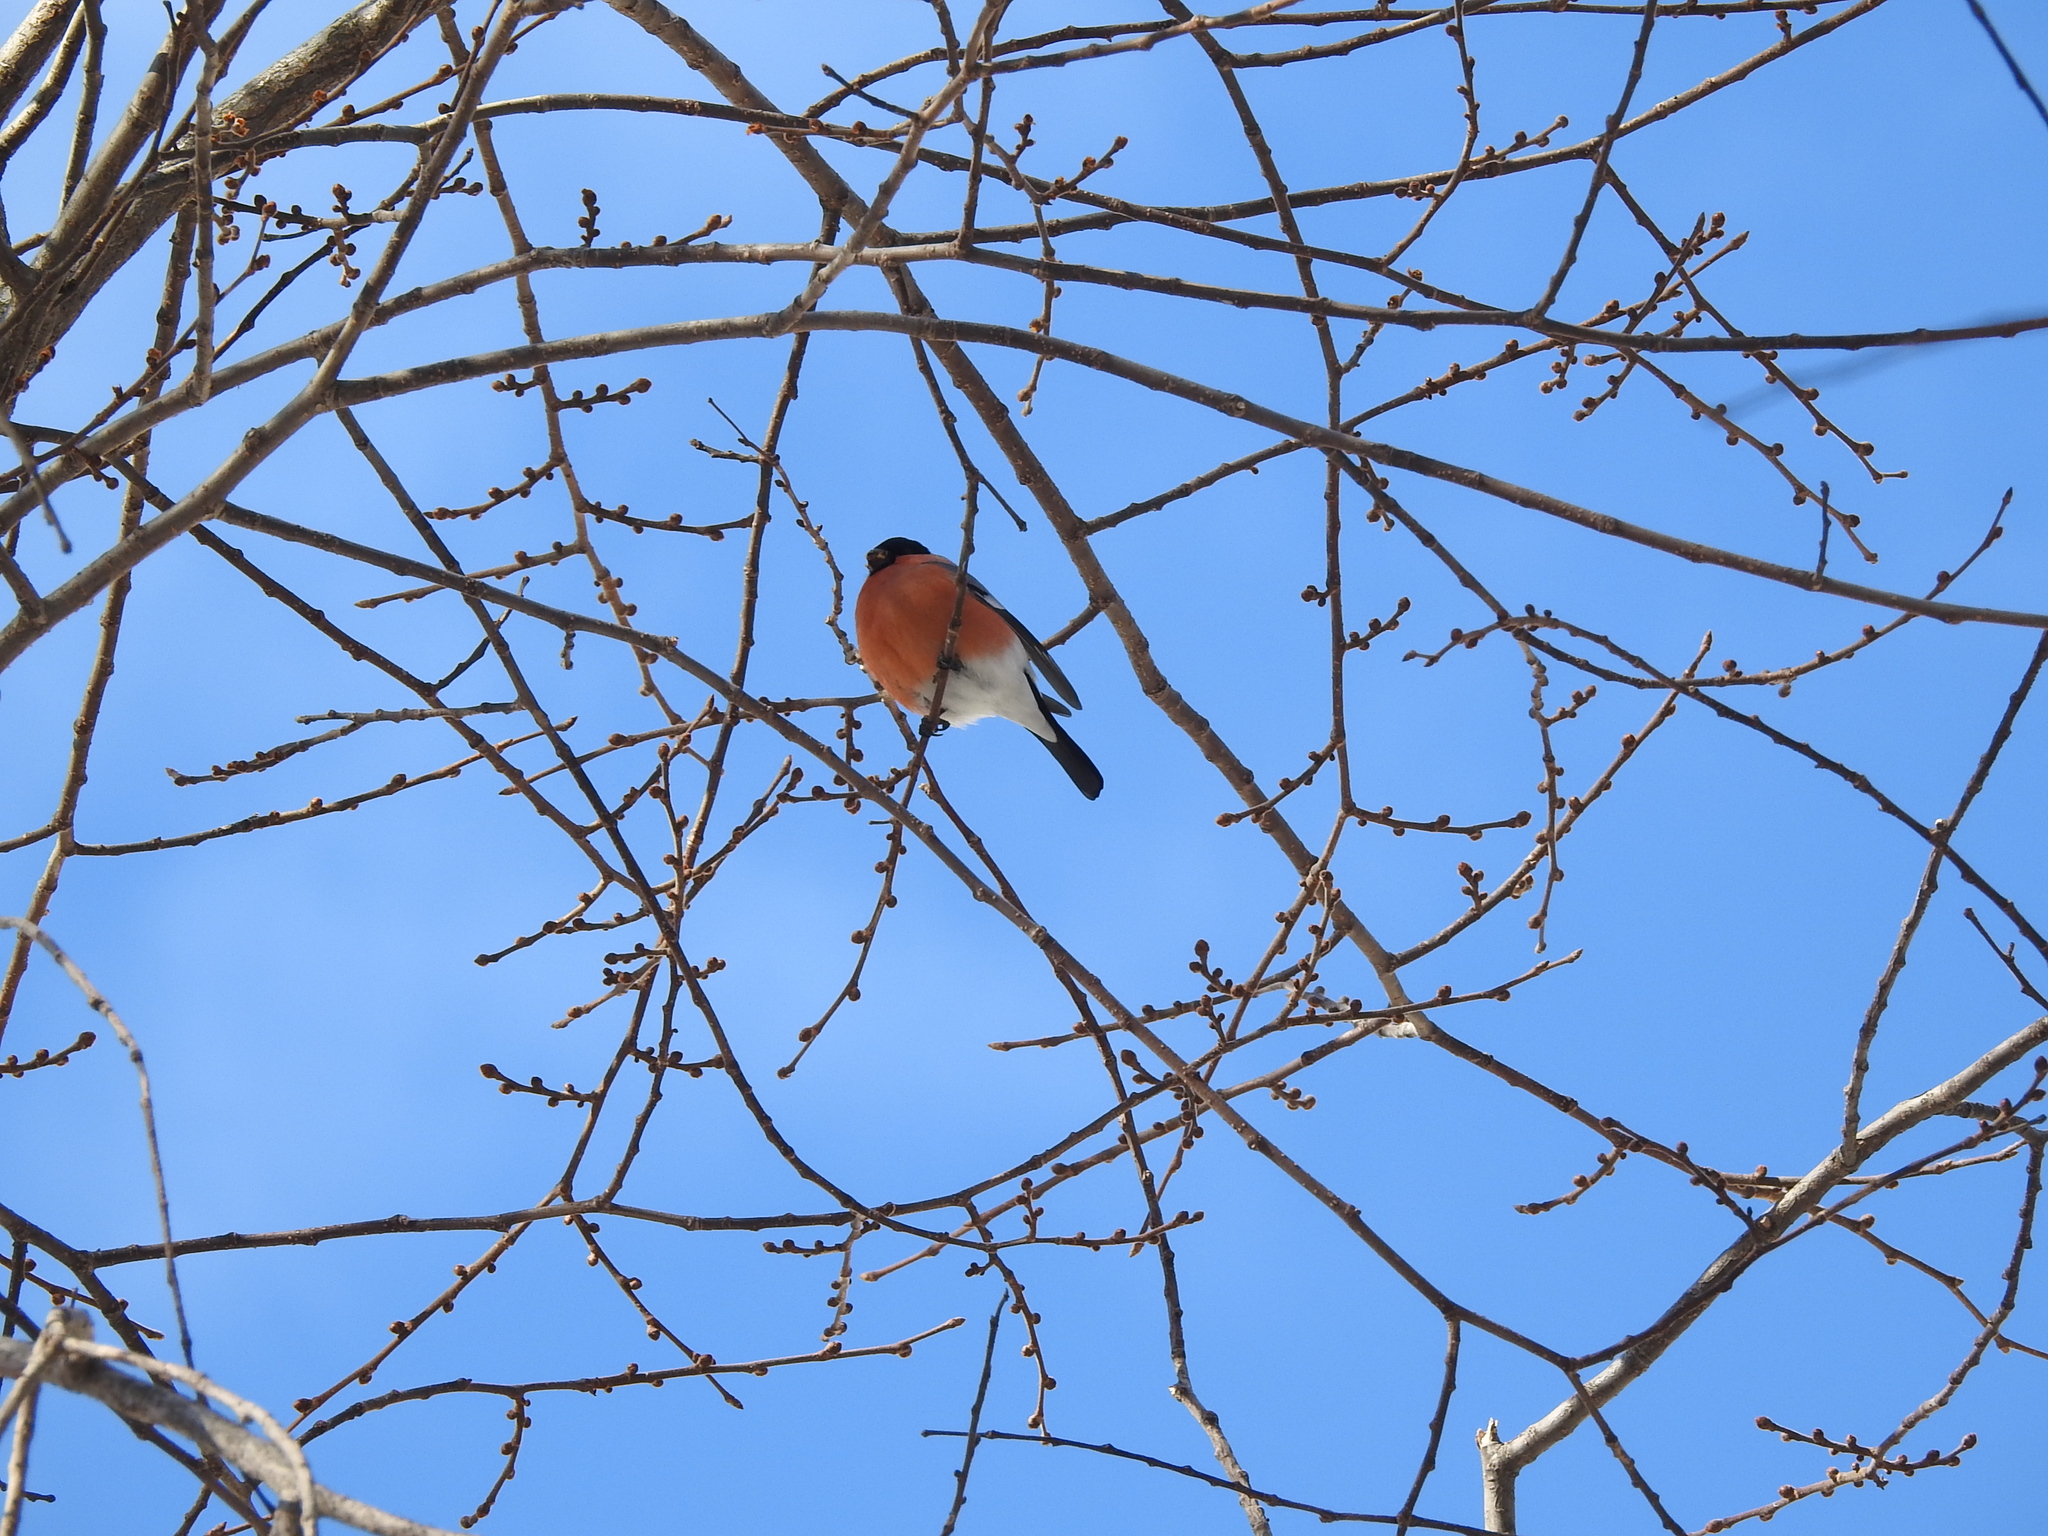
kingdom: Animalia
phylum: Chordata
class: Aves
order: Passeriformes
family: Fringillidae
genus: Pyrrhula
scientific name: Pyrrhula pyrrhula
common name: Eurasian bullfinch
